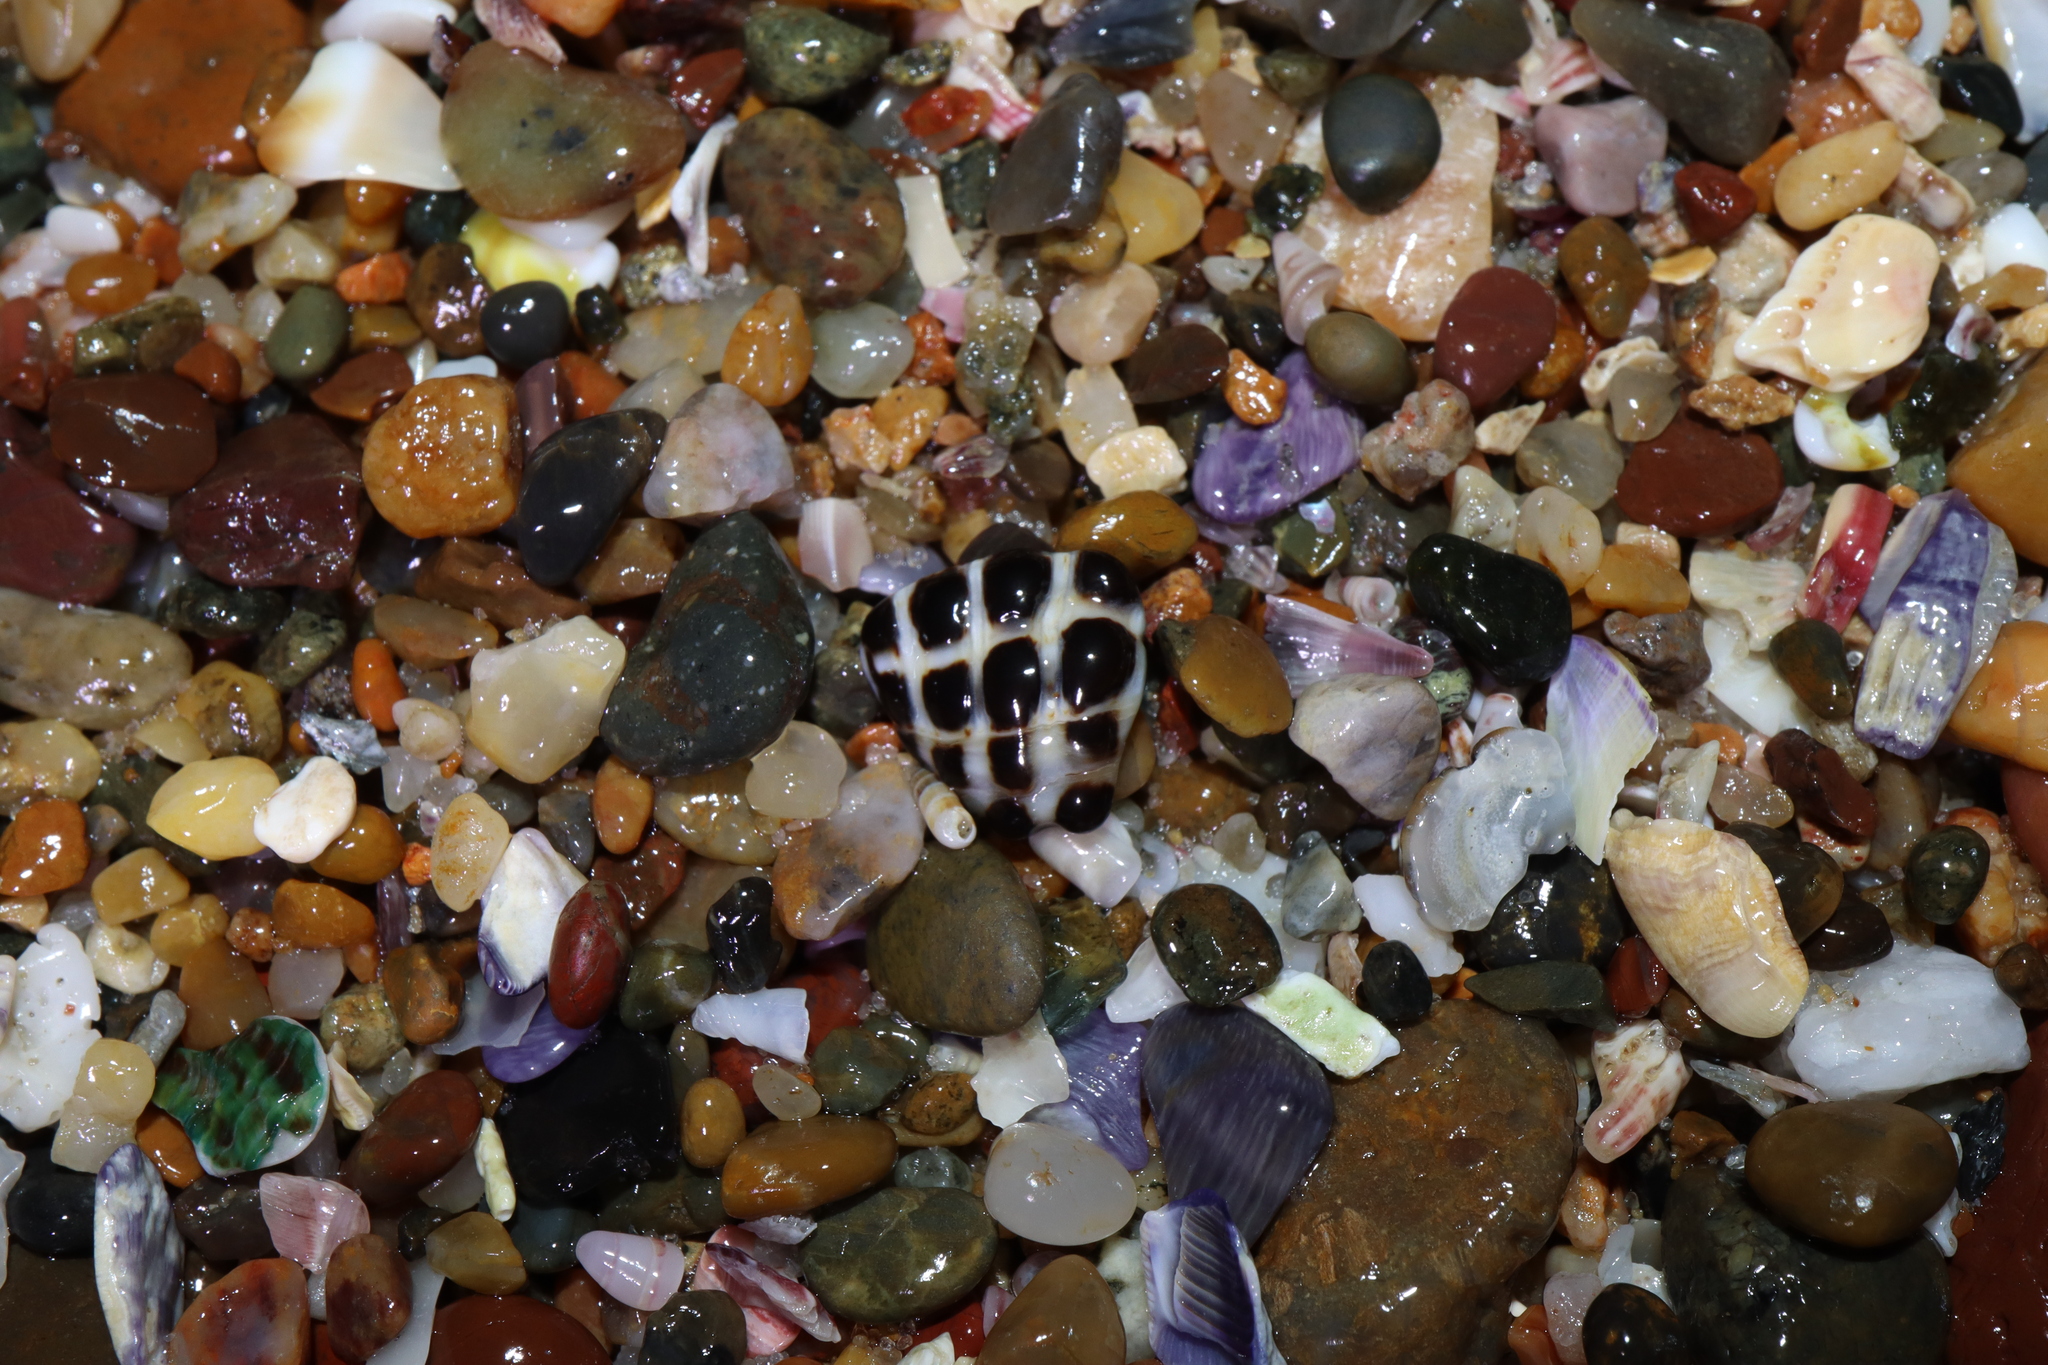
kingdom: Animalia
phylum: Mollusca
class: Gastropoda
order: Neogastropoda
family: Muricidae
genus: Tenguella
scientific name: Tenguella marginalba
